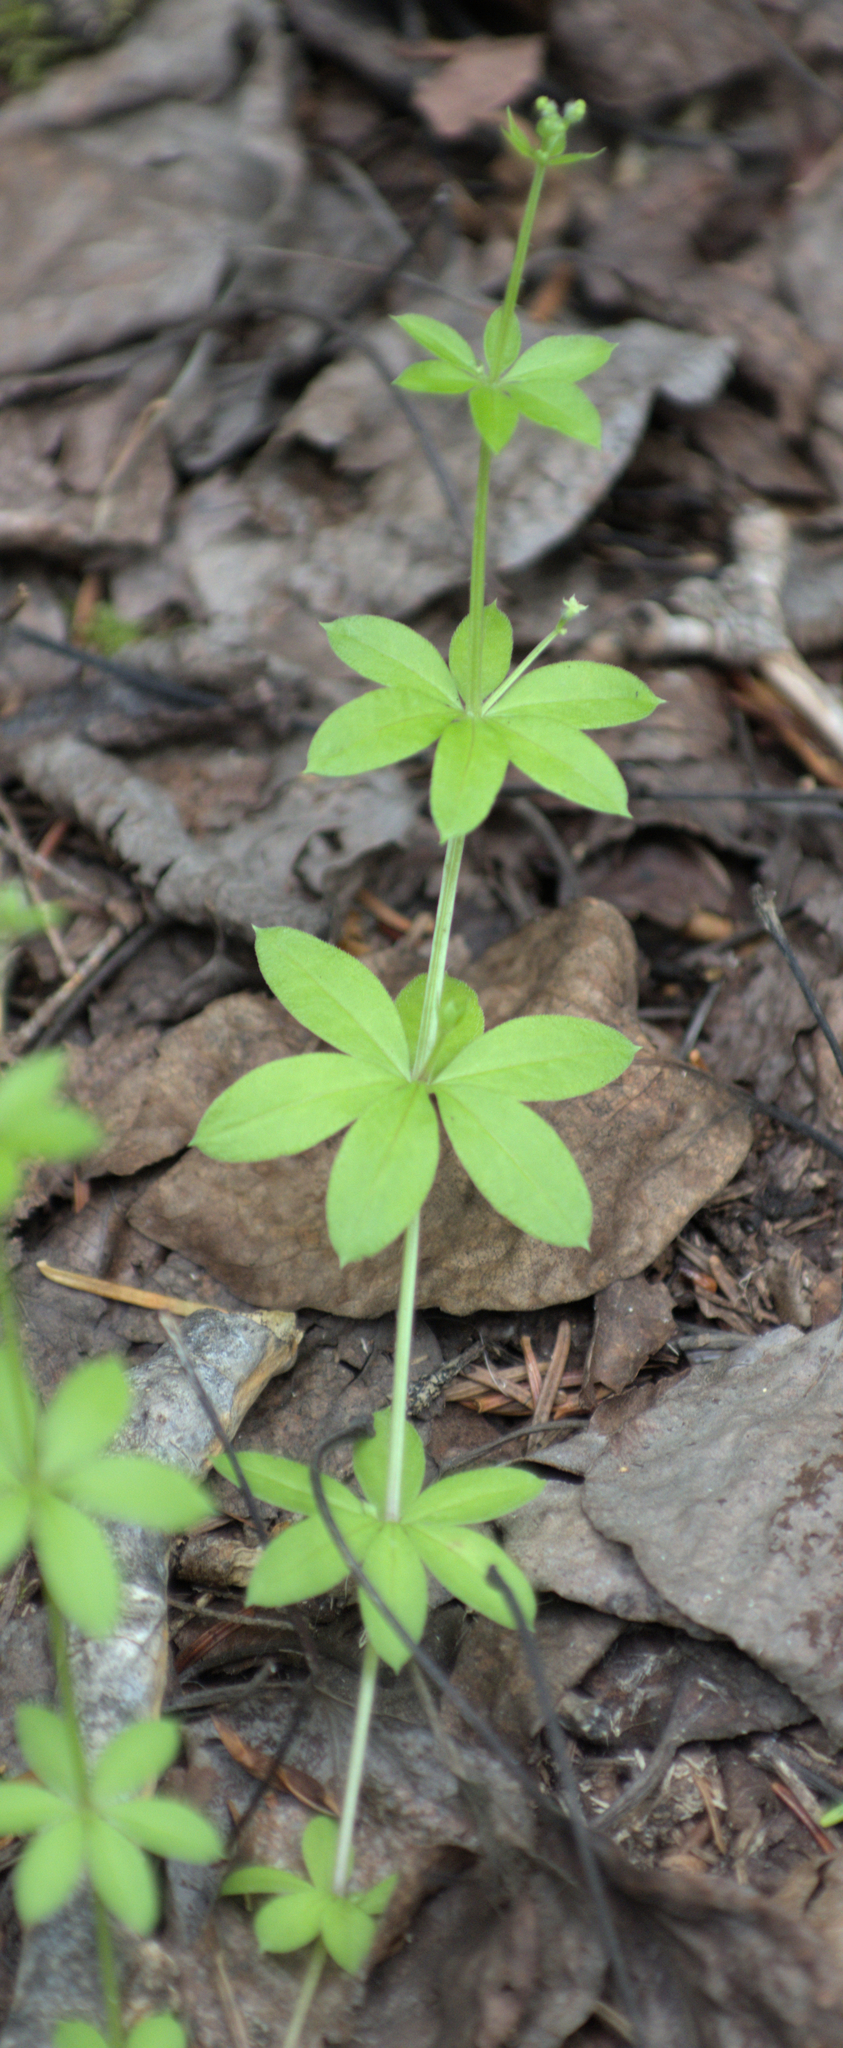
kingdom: Plantae
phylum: Tracheophyta
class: Magnoliopsida
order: Gentianales
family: Rubiaceae
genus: Galium
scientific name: Galium triflorum
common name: Fragrant bedstraw
